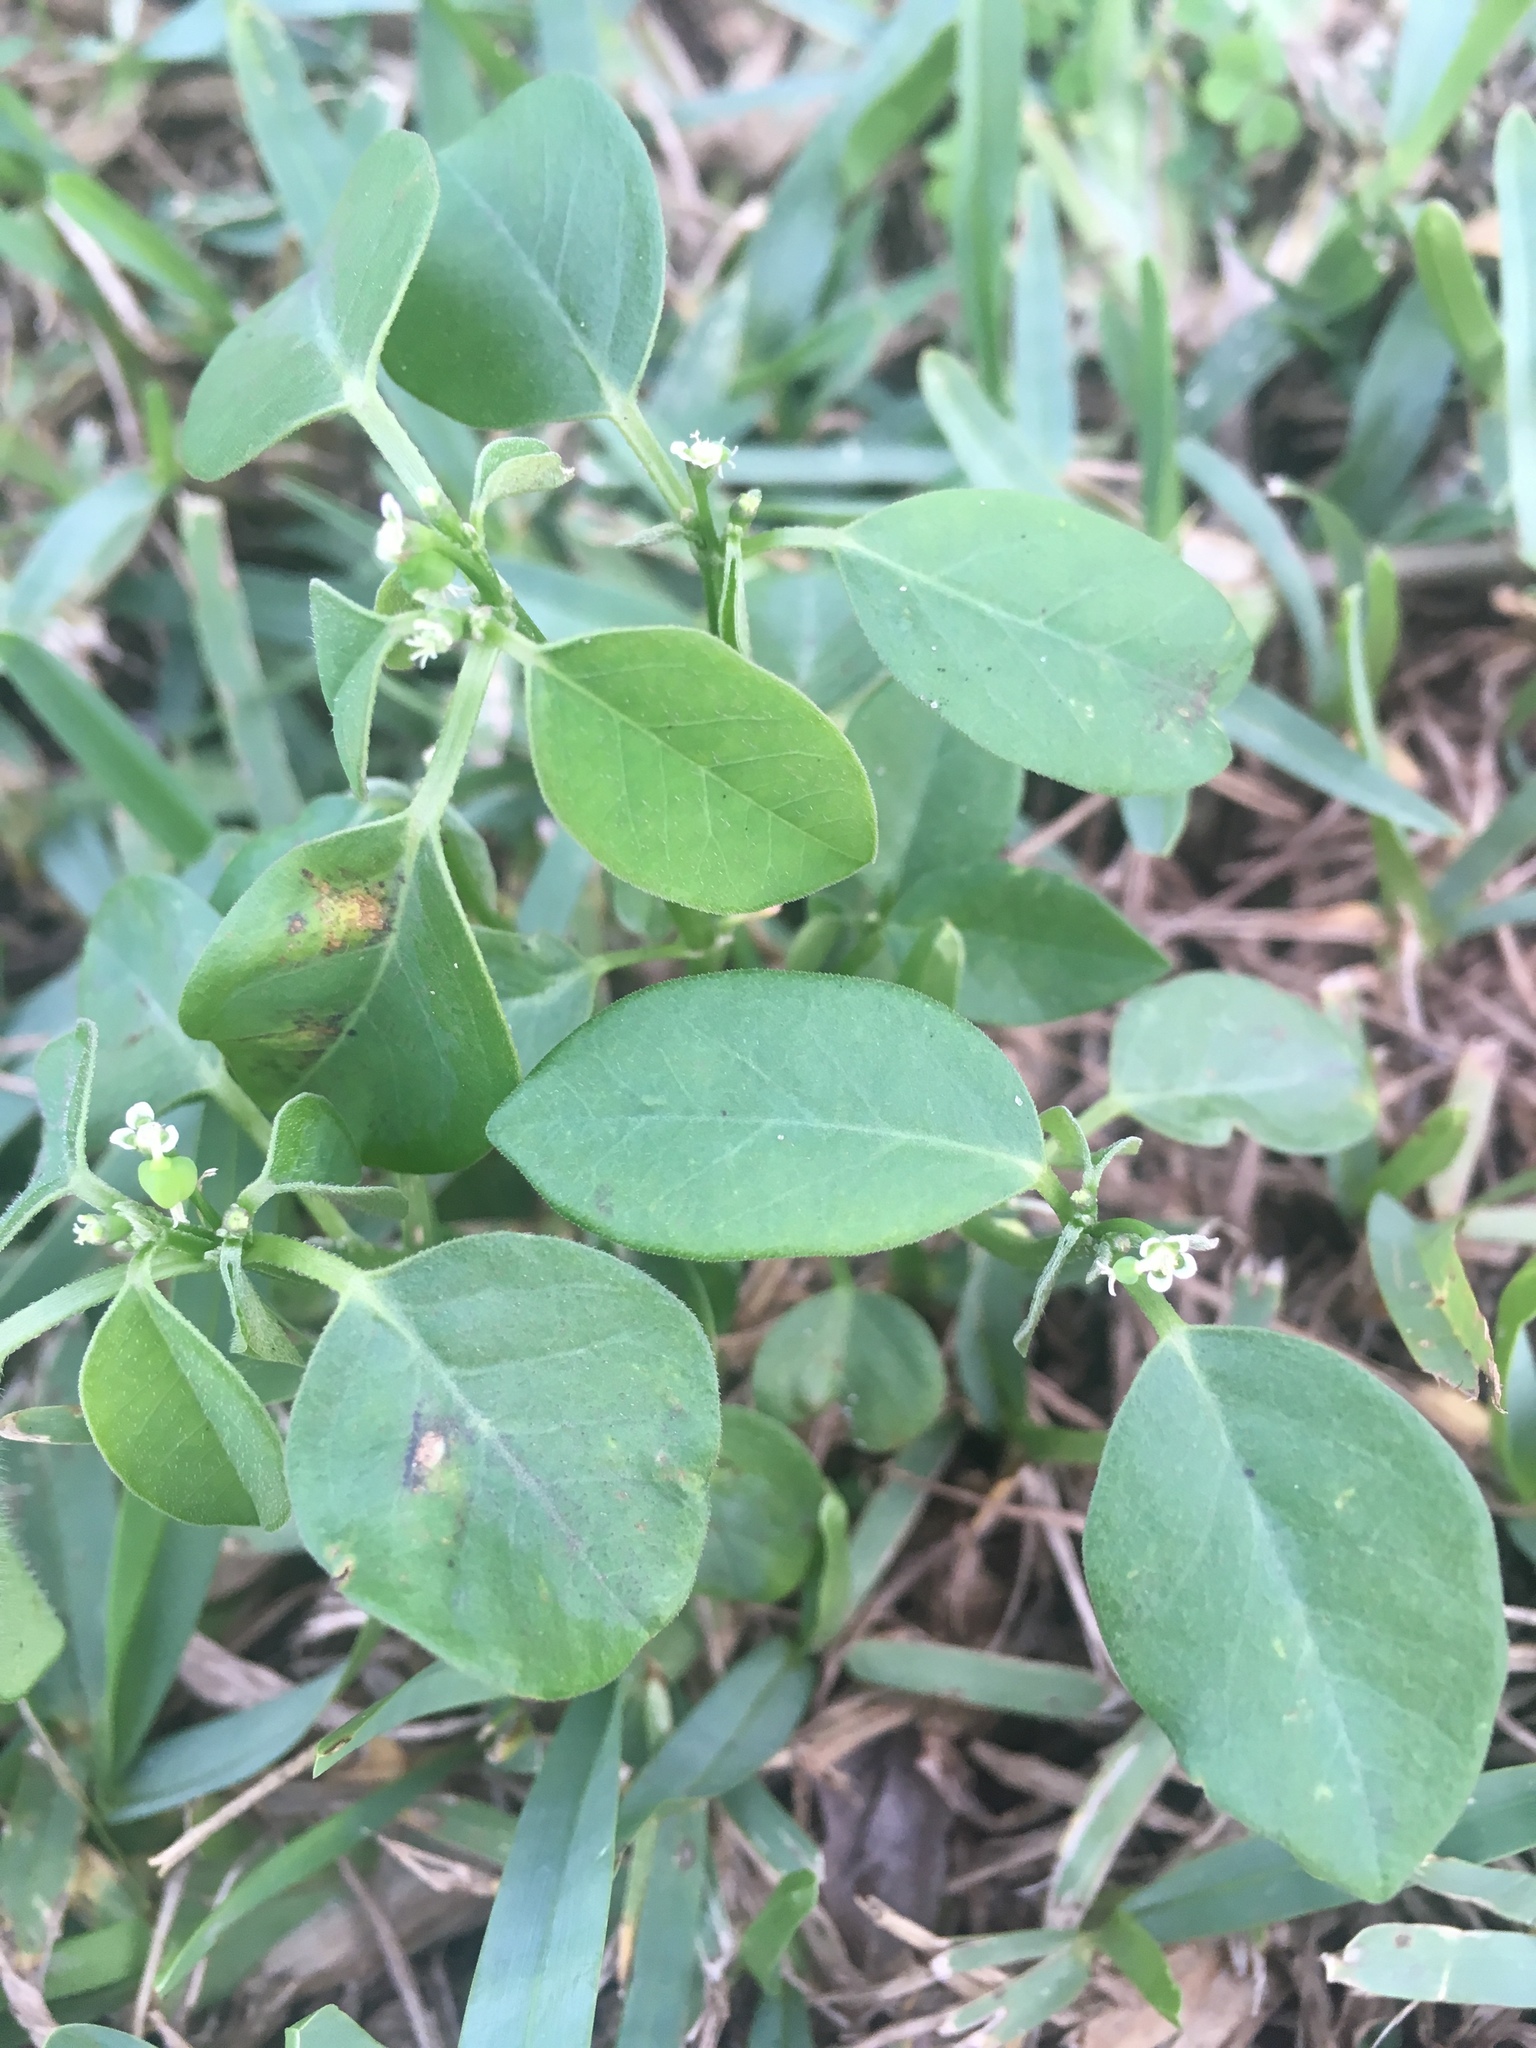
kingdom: Plantae
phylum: Tracheophyta
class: Magnoliopsida
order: Malpighiales
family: Euphorbiaceae
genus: Euphorbia
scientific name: Euphorbia graminea
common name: Grassleaf spurge
